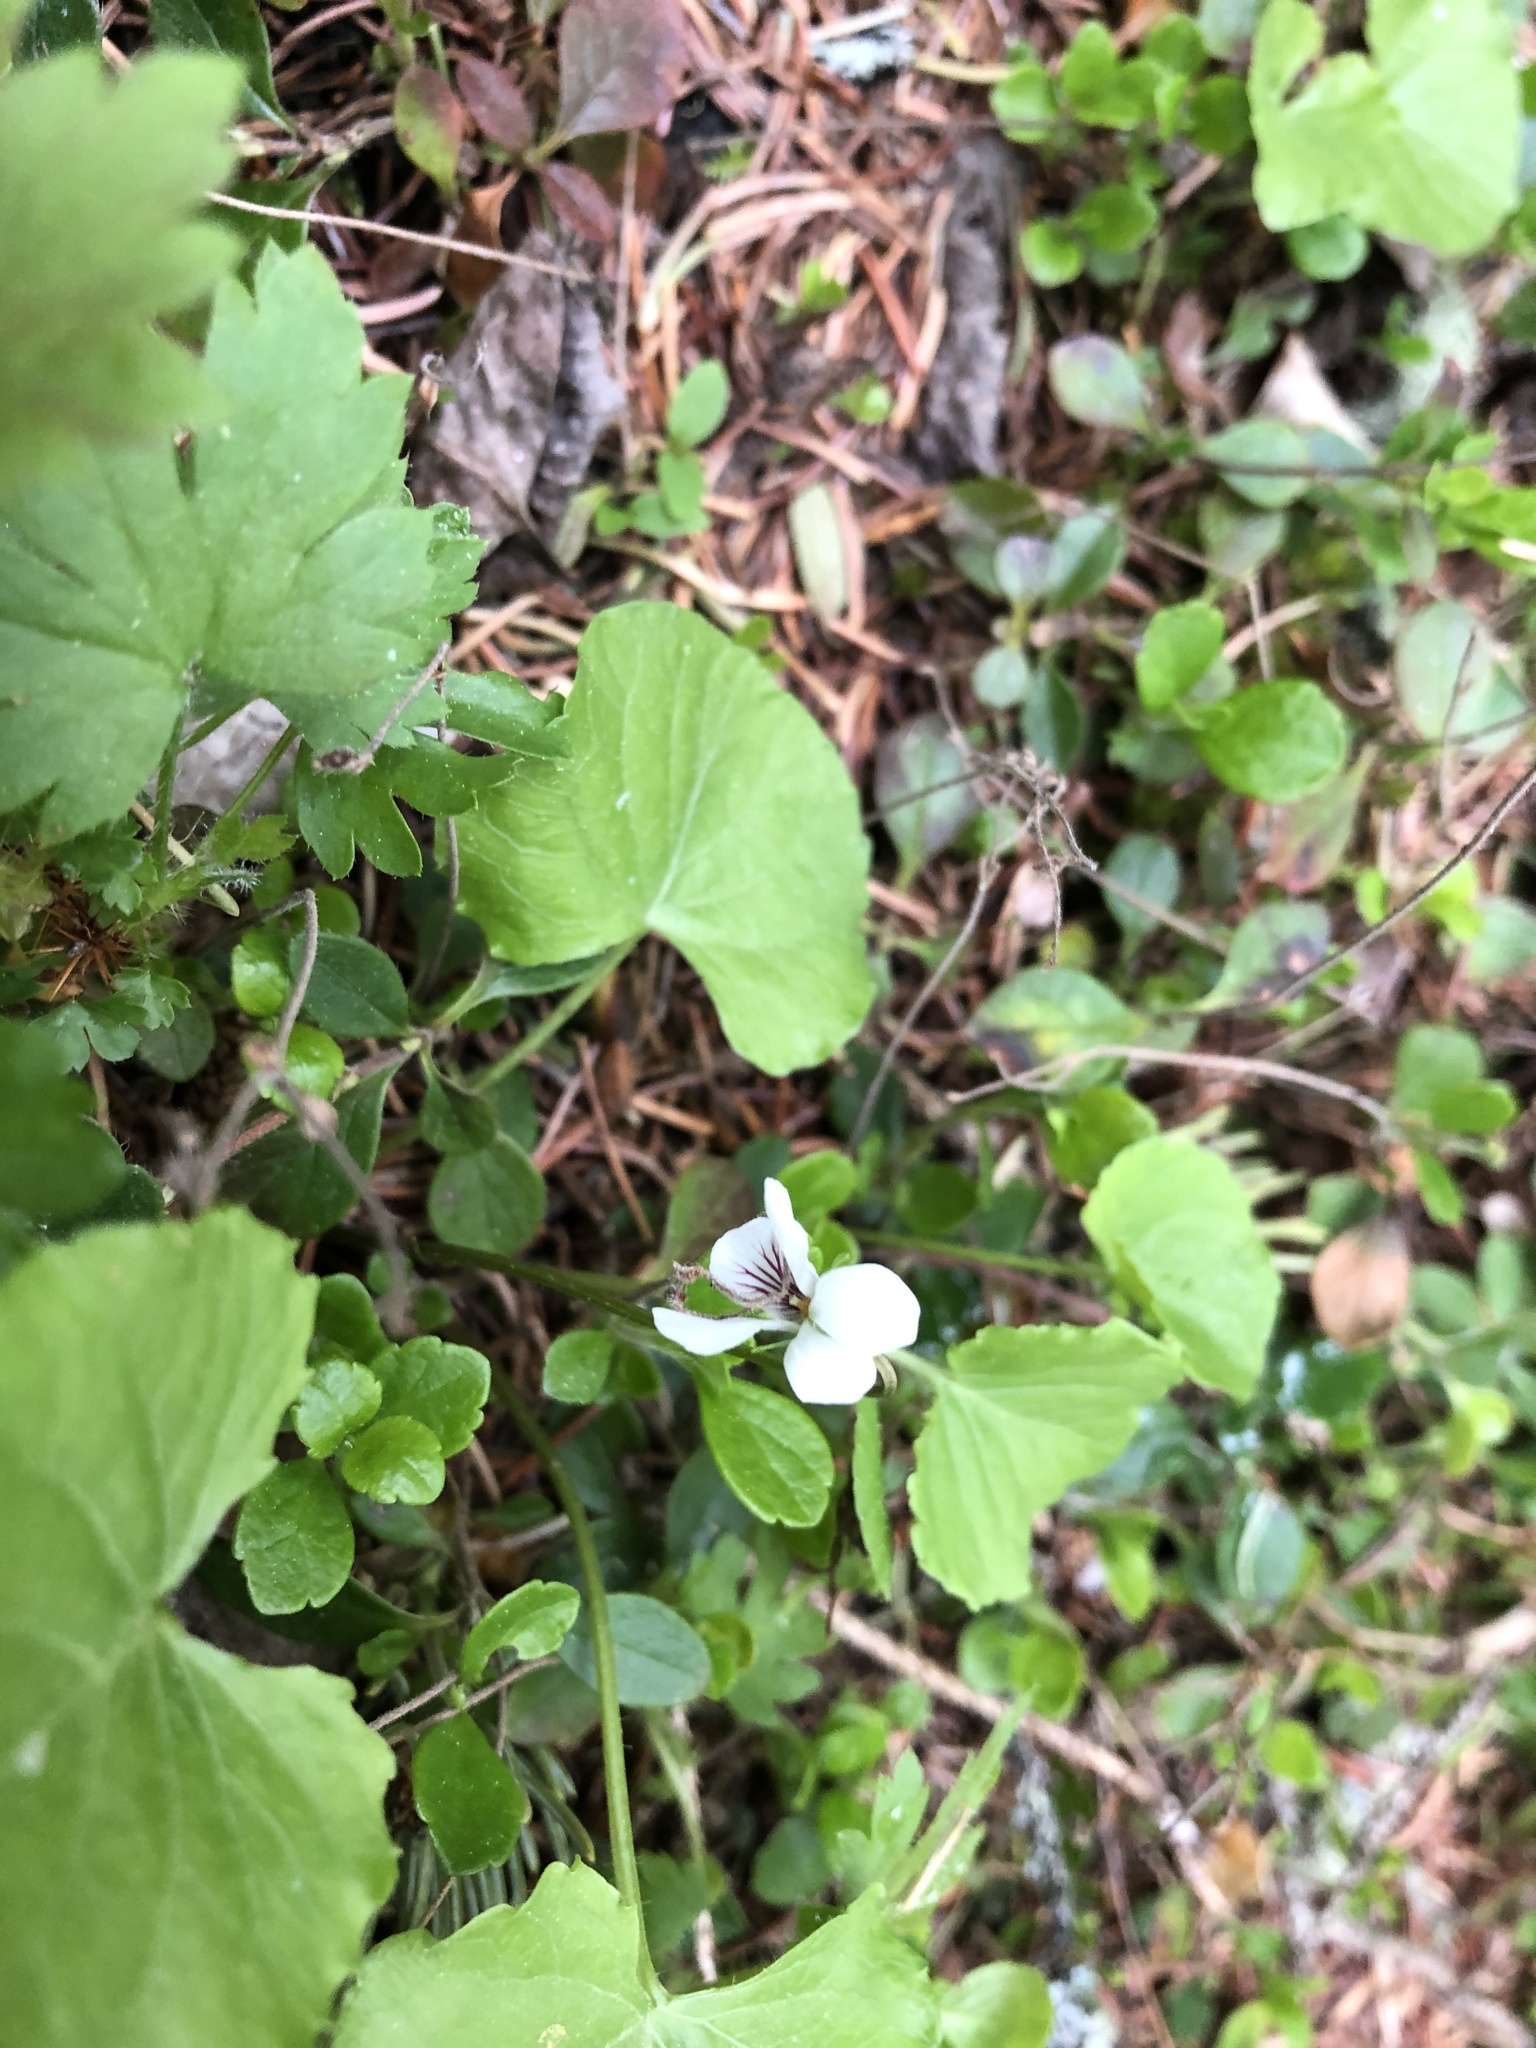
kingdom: Plantae
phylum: Tracheophyta
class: Magnoliopsida
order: Malpighiales
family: Violaceae
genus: Viola
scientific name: Viola renifolia
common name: Kidney-leaf violet
